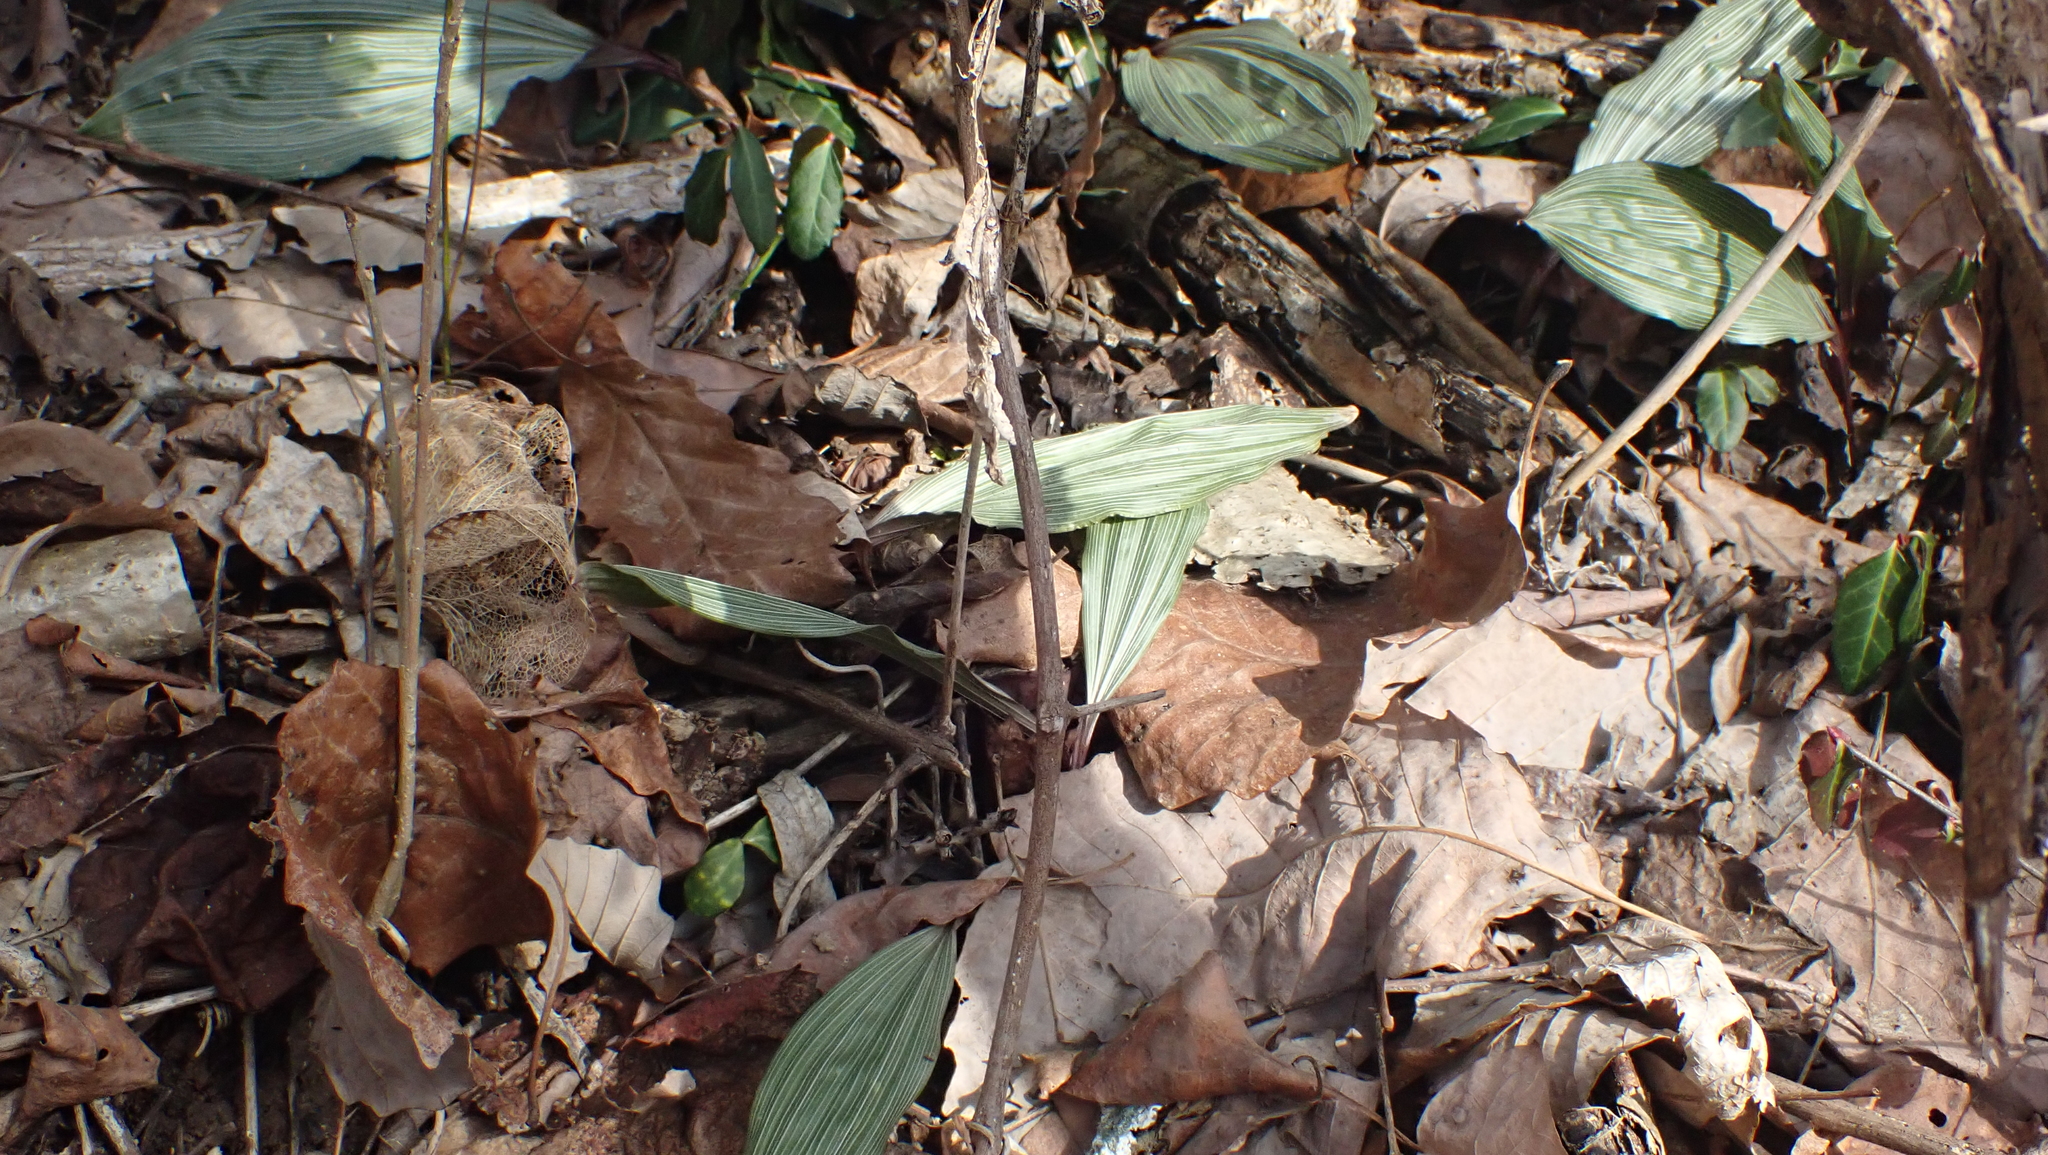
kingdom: Plantae
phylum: Tracheophyta
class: Liliopsida
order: Asparagales
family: Orchidaceae
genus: Aplectrum
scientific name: Aplectrum hyemale
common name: Adam-and-eve
